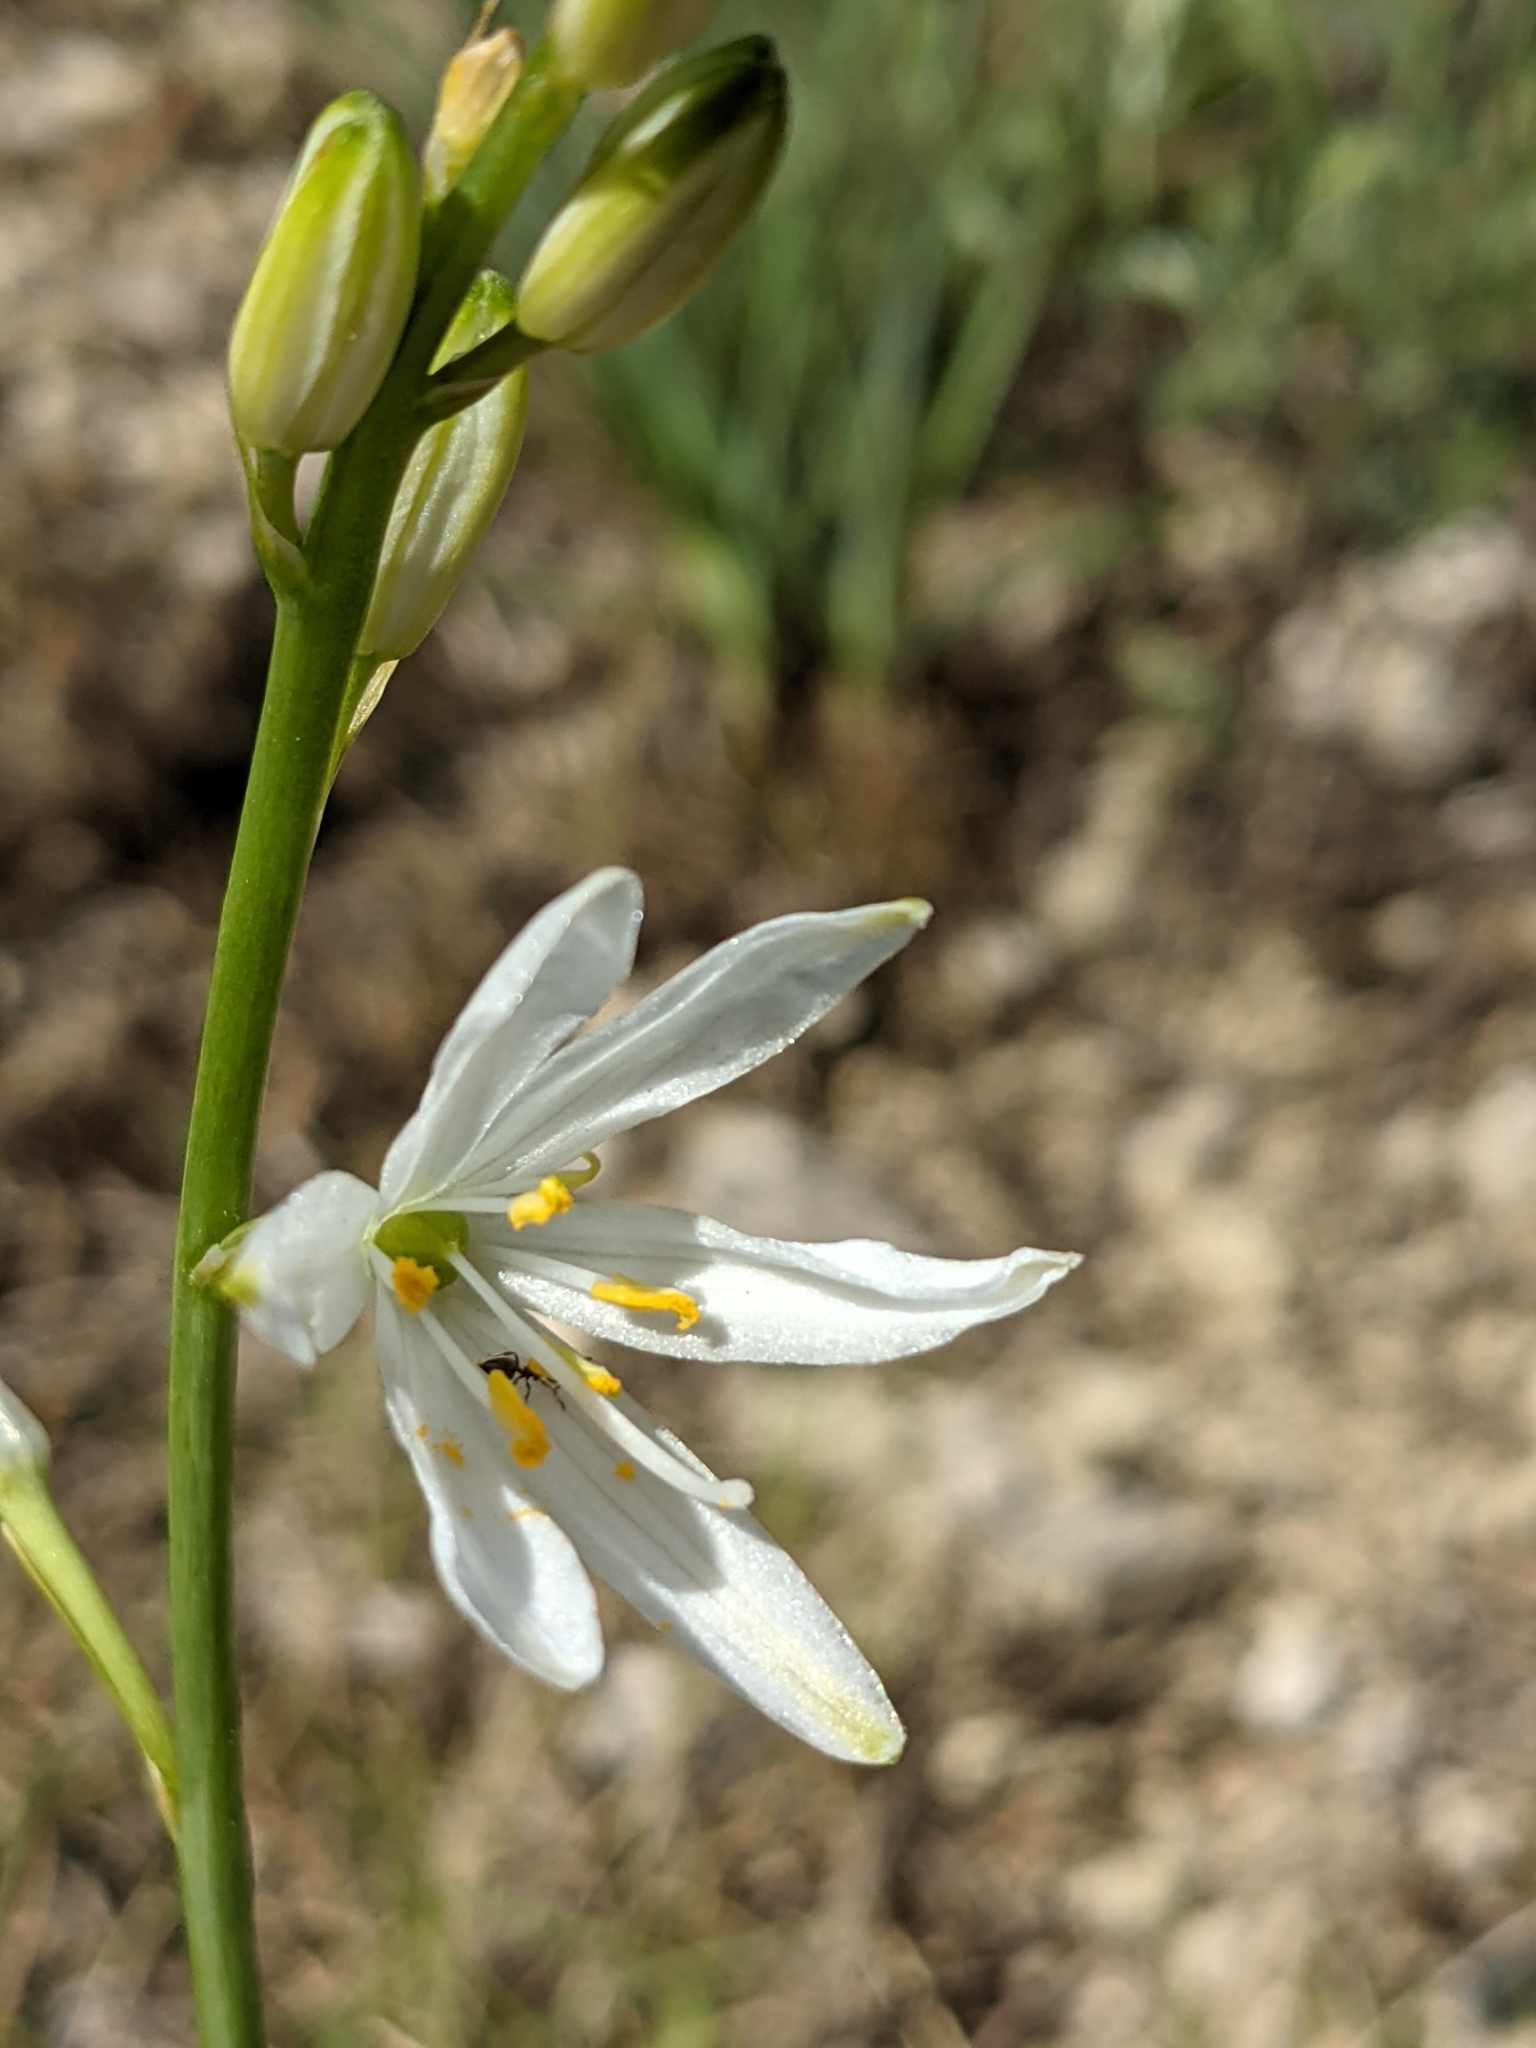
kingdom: Plantae
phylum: Tracheophyta
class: Liliopsida
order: Asparagales
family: Asparagaceae
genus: Anthericum
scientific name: Anthericum liliago
